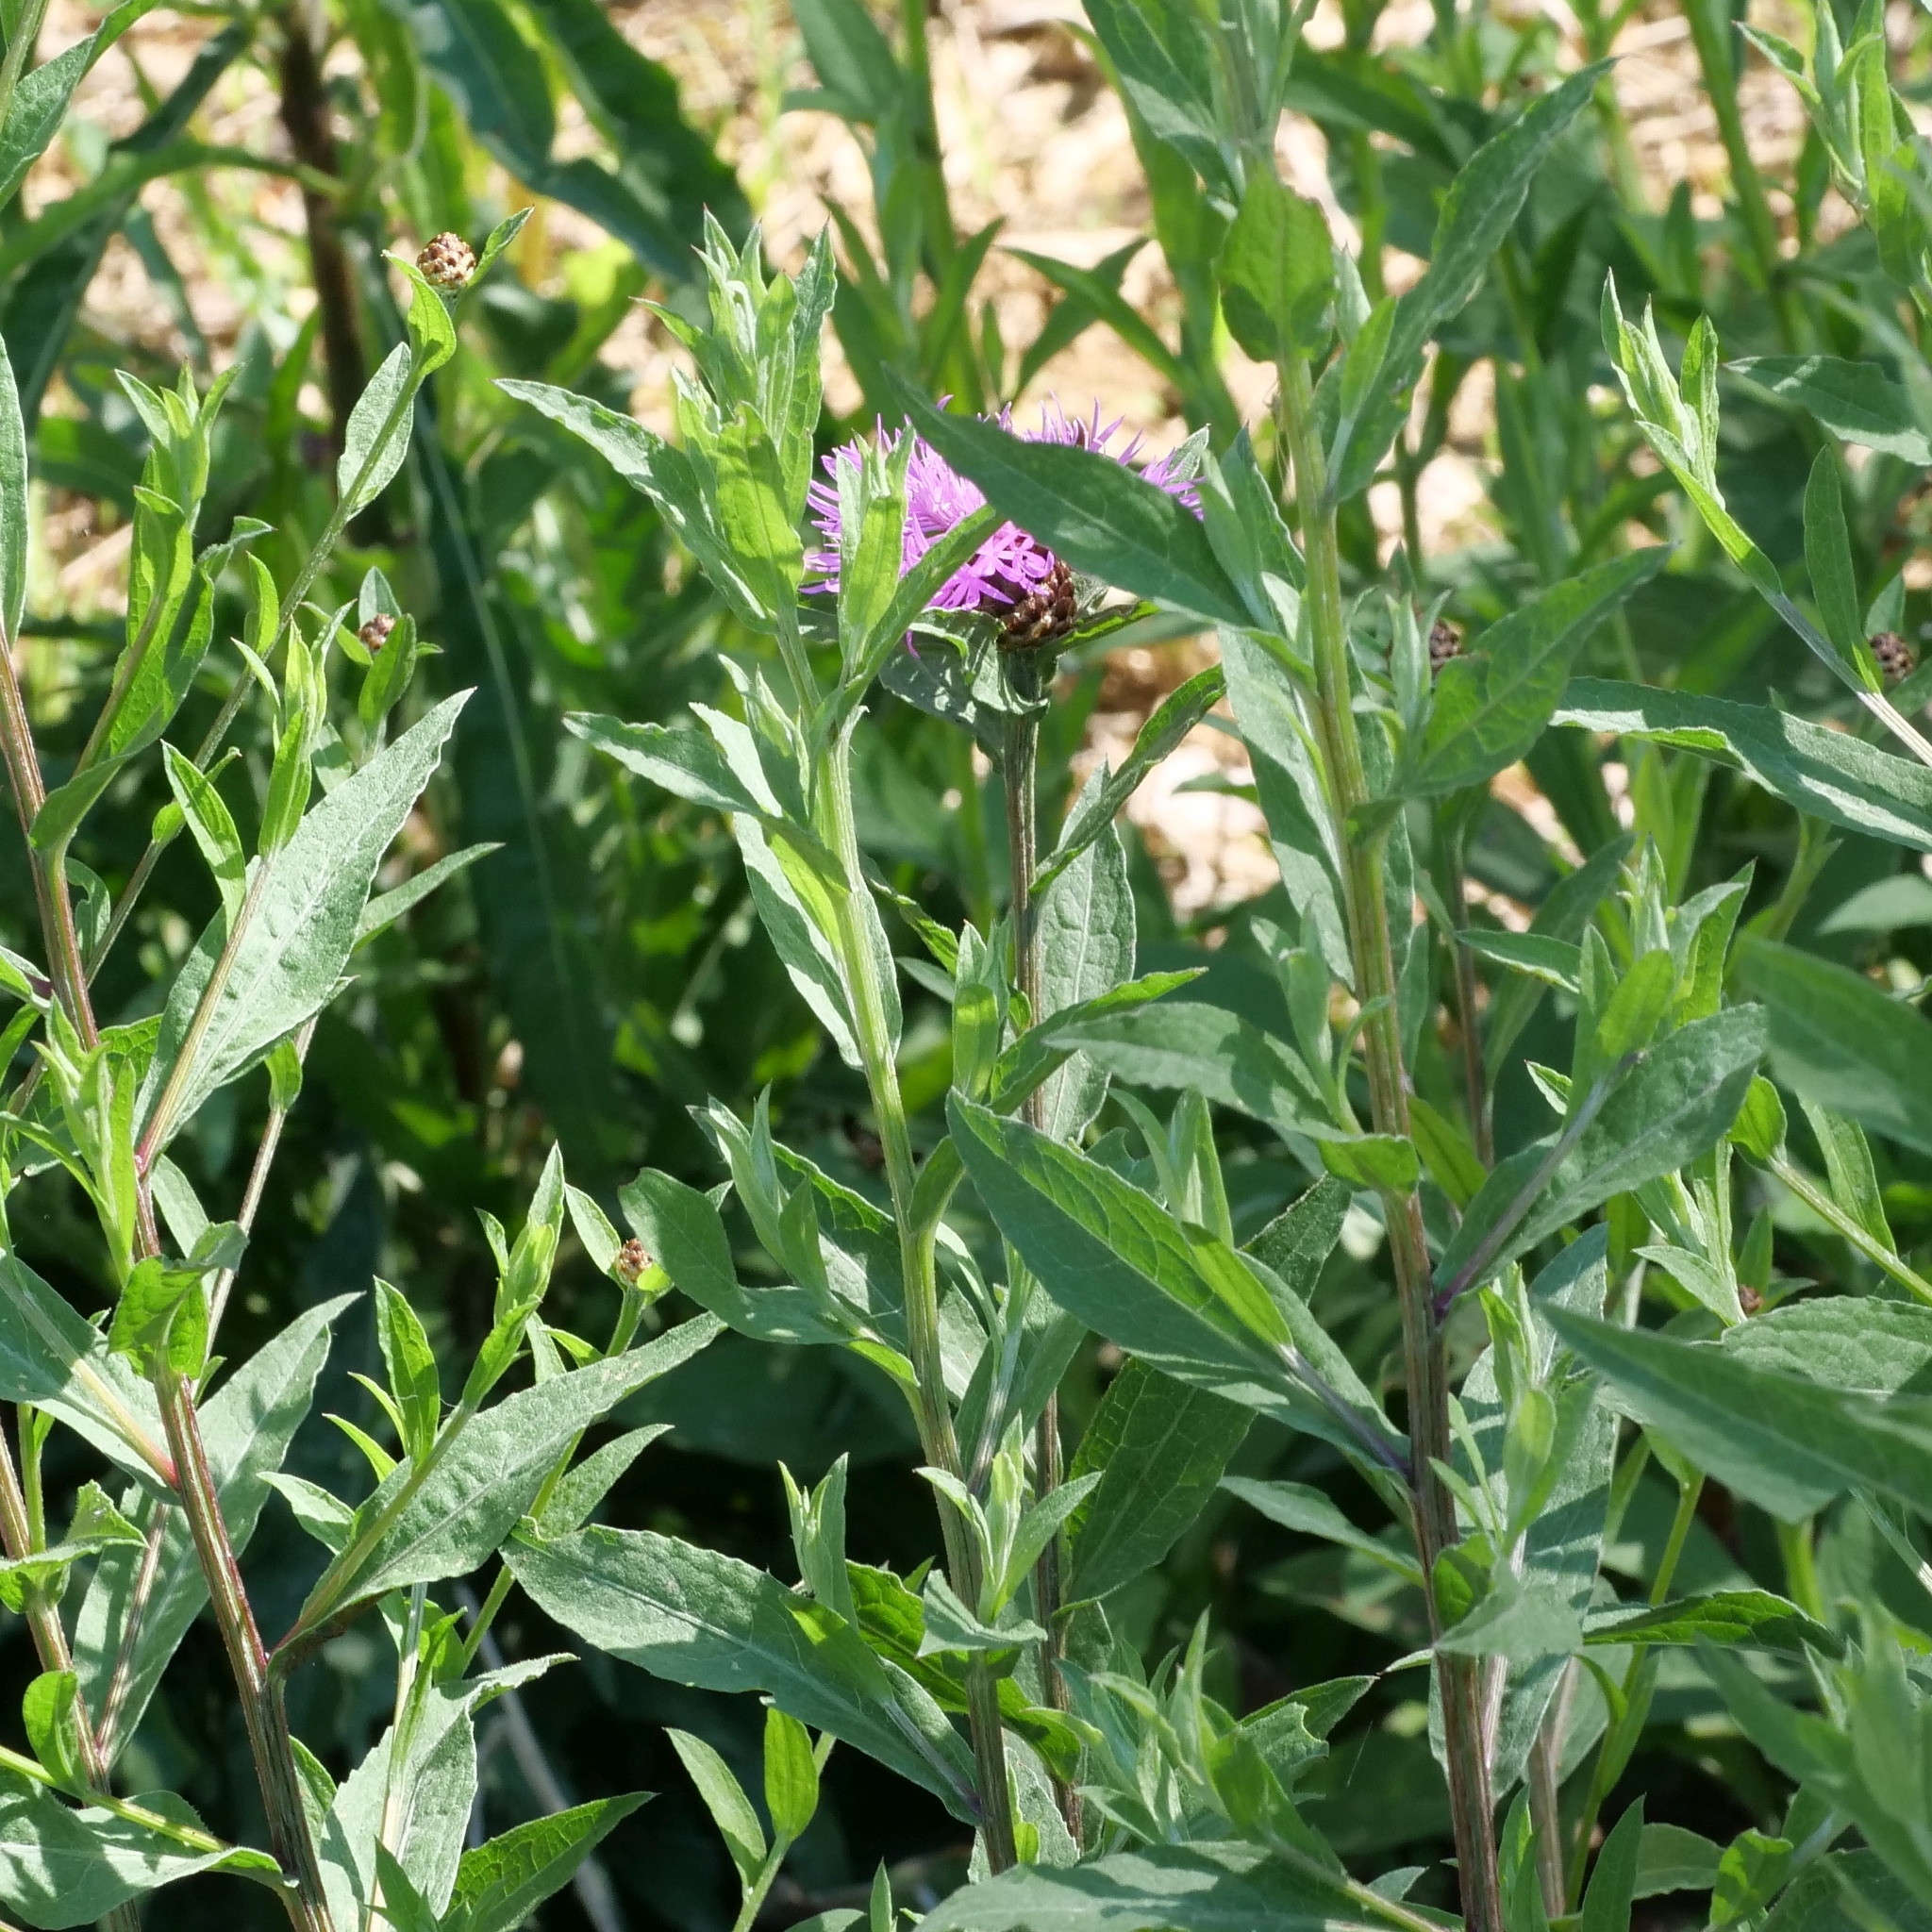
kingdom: Plantae
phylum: Tracheophyta
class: Magnoliopsida
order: Asterales
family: Asteraceae
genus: Centaurea
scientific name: Centaurea jacea
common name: Brown knapweed
